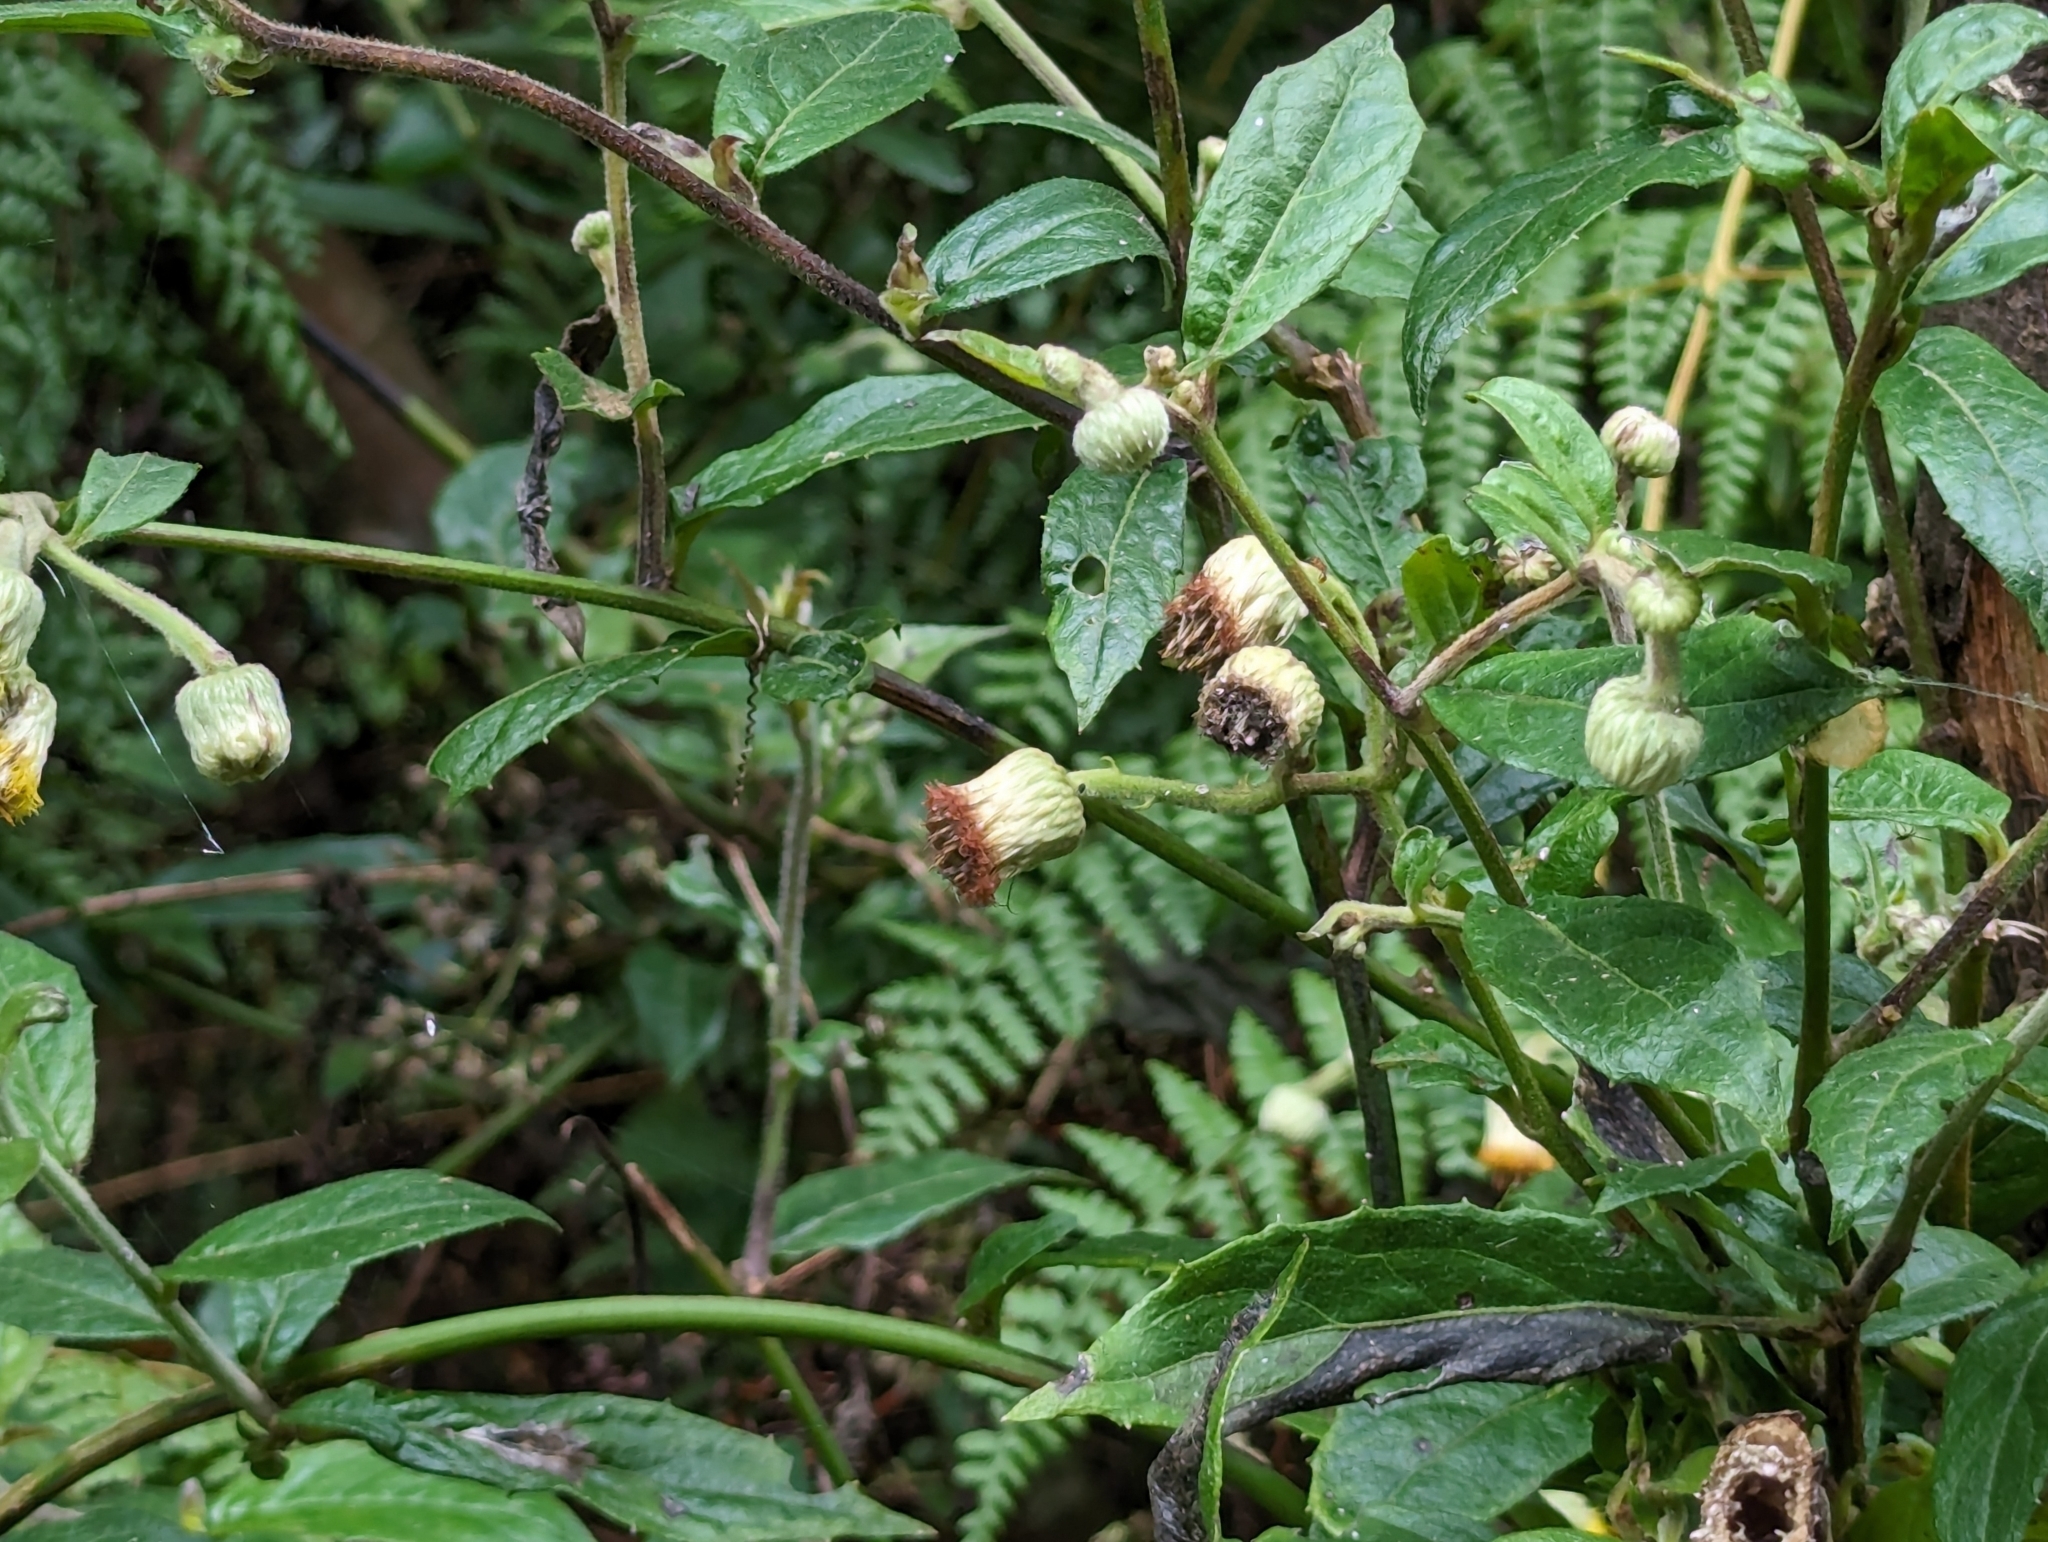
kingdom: Plantae
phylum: Tracheophyta
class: Magnoliopsida
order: Asterales
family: Asteraceae
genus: Blumea
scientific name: Blumea megacephala
